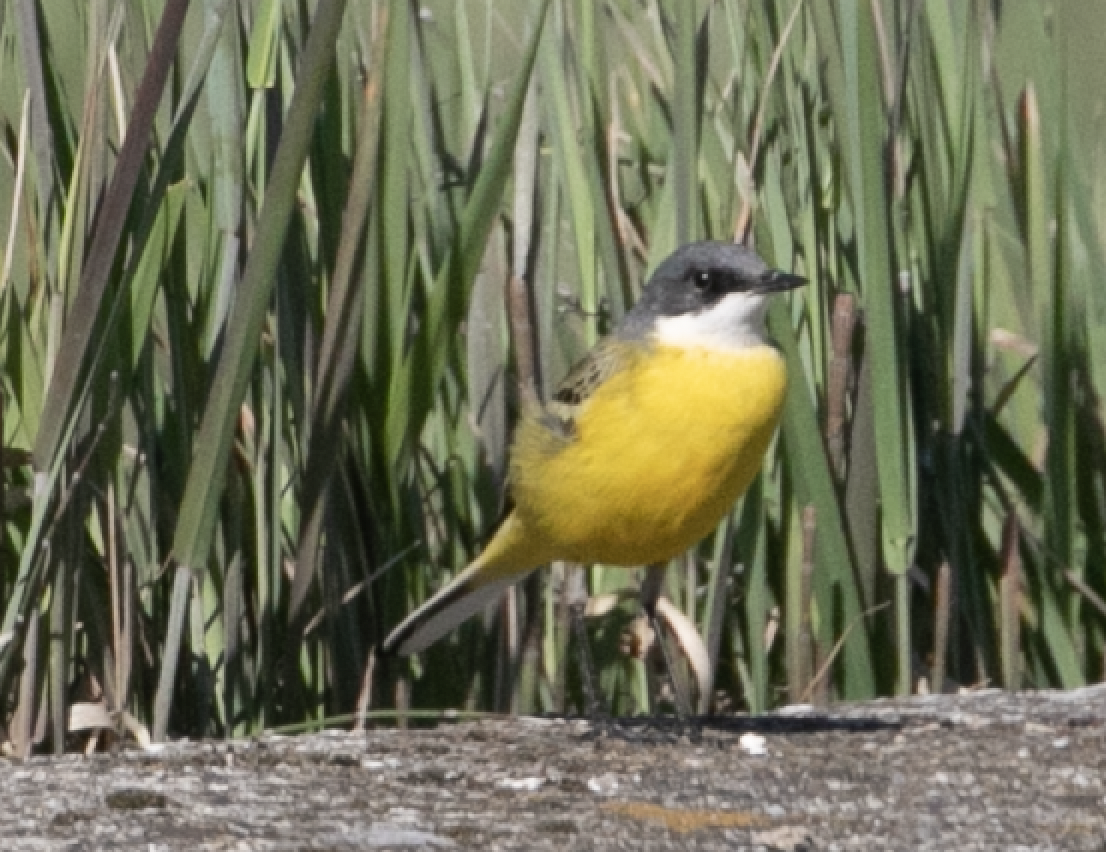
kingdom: Animalia
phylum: Chordata
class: Aves
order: Passeriformes
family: Motacillidae
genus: Motacilla
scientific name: Motacilla flava
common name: Western yellow wagtail
